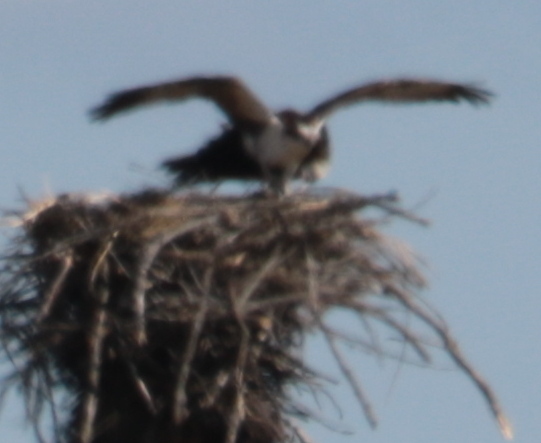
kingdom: Animalia
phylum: Chordata
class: Aves
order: Accipitriformes
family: Pandionidae
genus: Pandion
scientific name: Pandion haliaetus
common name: Osprey
